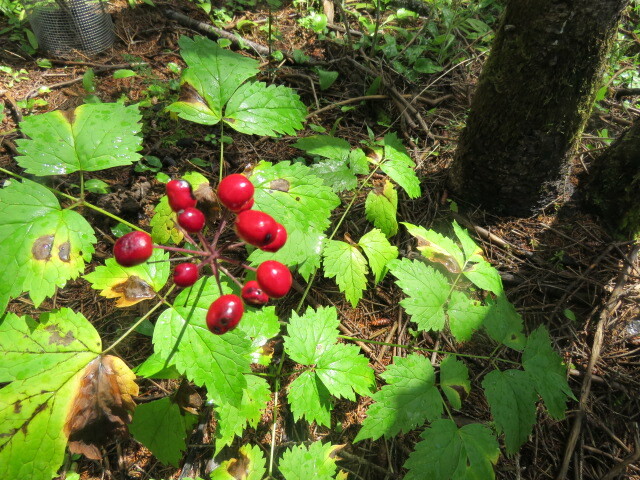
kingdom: Plantae
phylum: Tracheophyta
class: Magnoliopsida
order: Ranunculales
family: Ranunculaceae
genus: Actaea
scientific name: Actaea rubra
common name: Red baneberry
